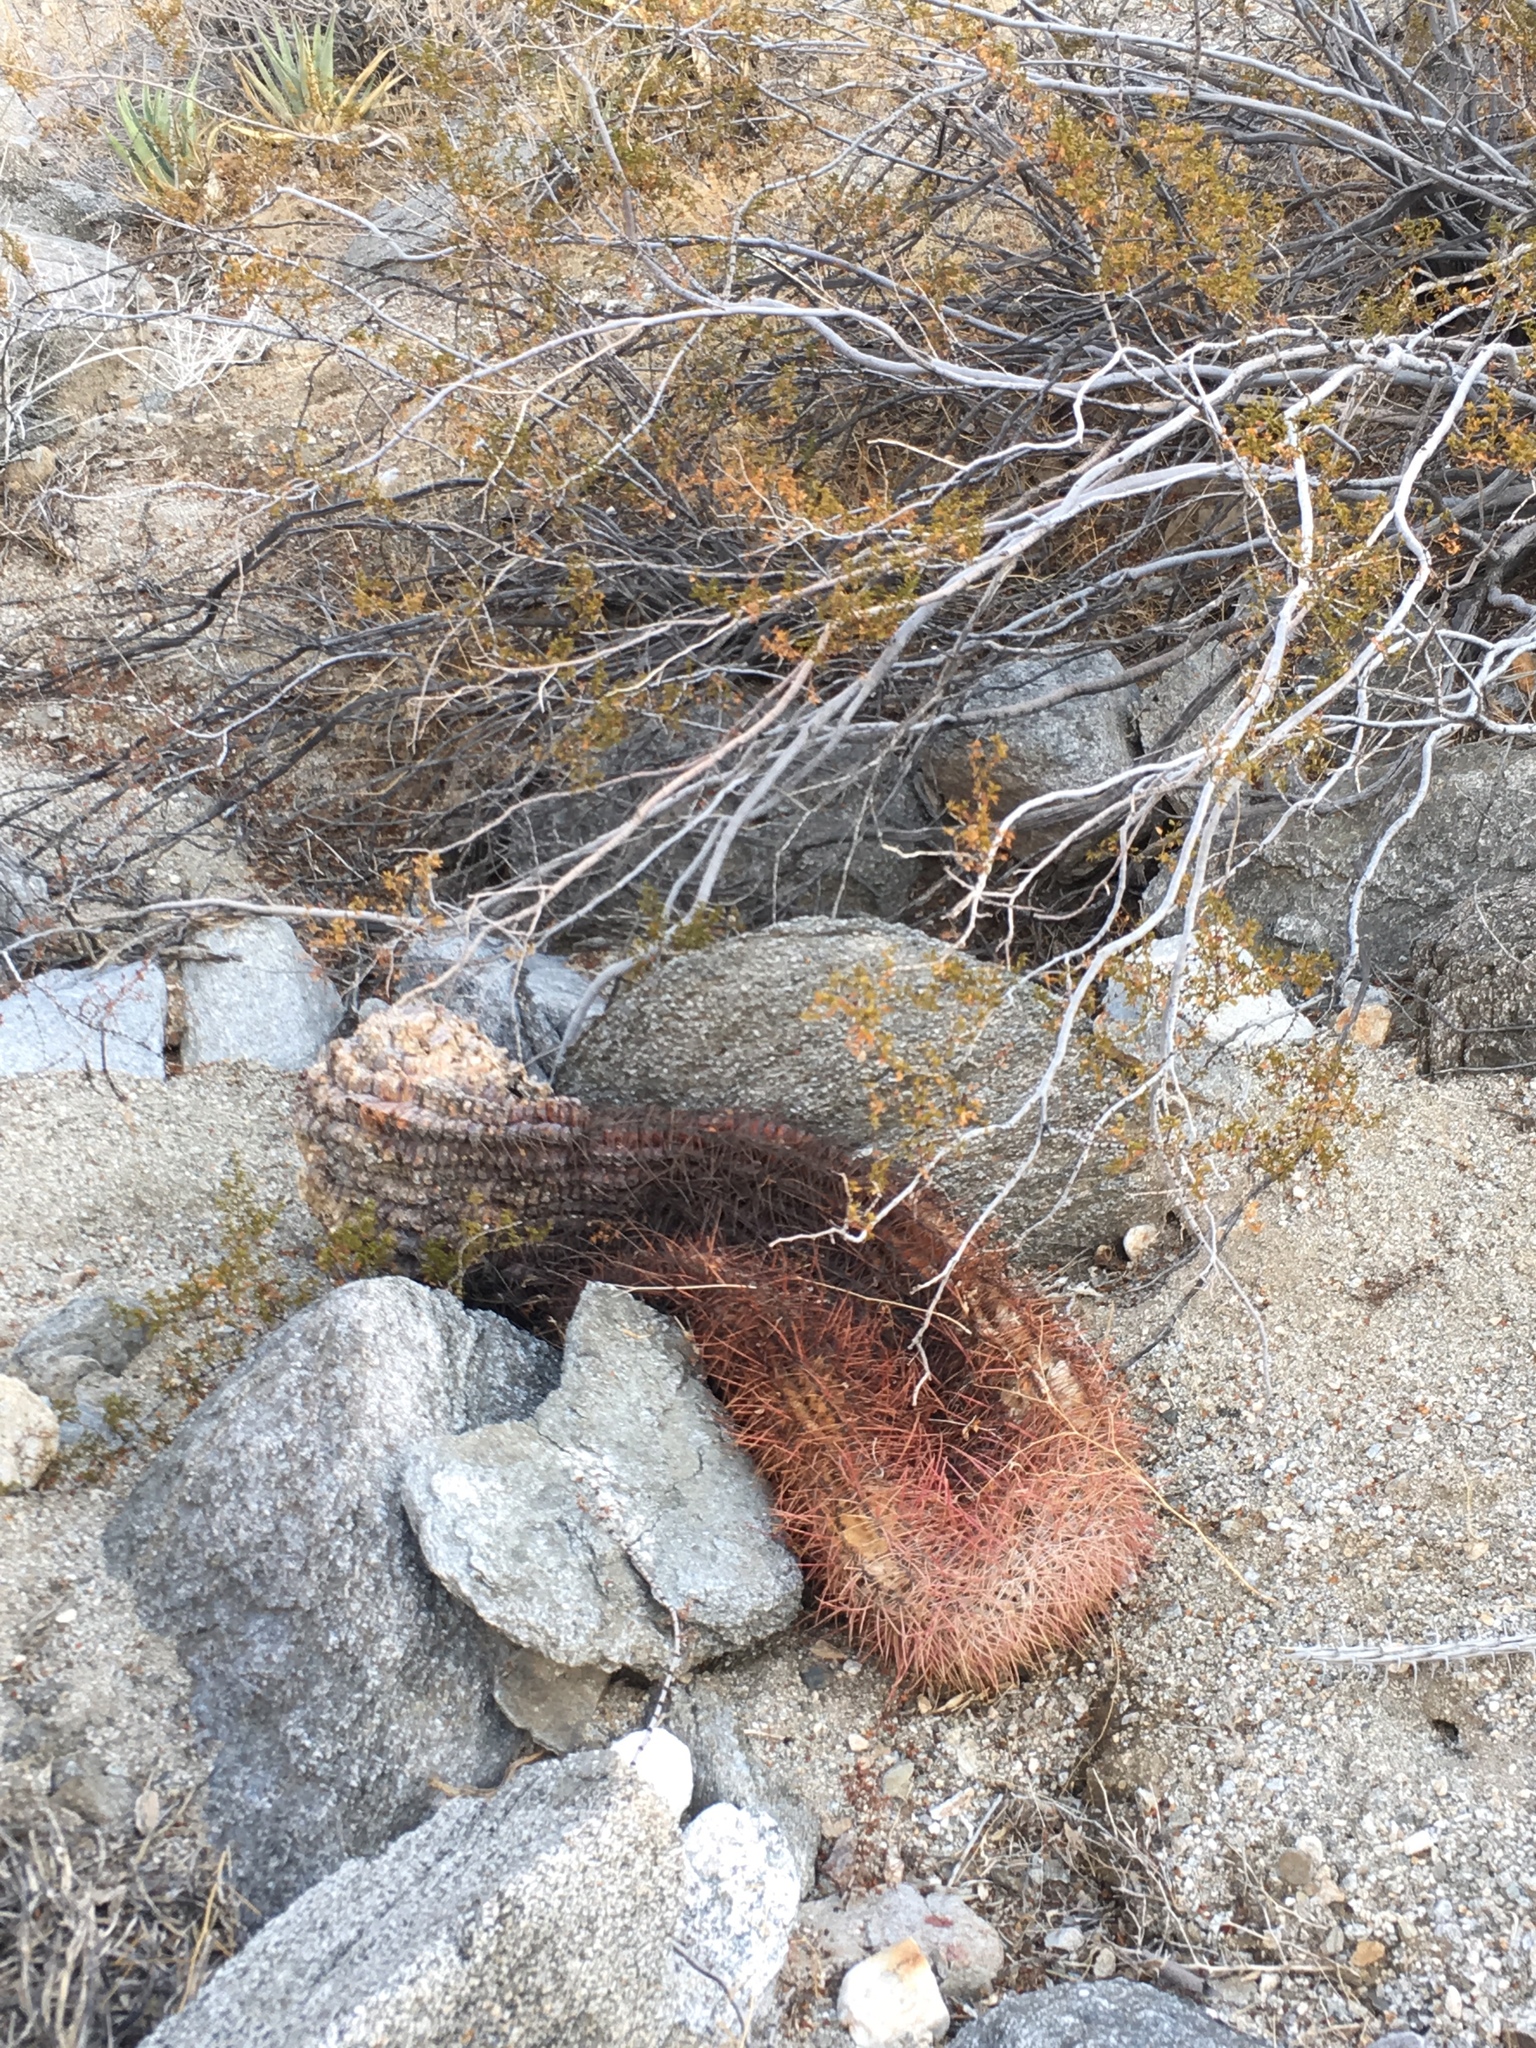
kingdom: Plantae
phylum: Tracheophyta
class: Magnoliopsida
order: Caryophyllales
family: Cactaceae
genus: Ferocactus
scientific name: Ferocactus cylindraceus
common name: California barrel cactus
